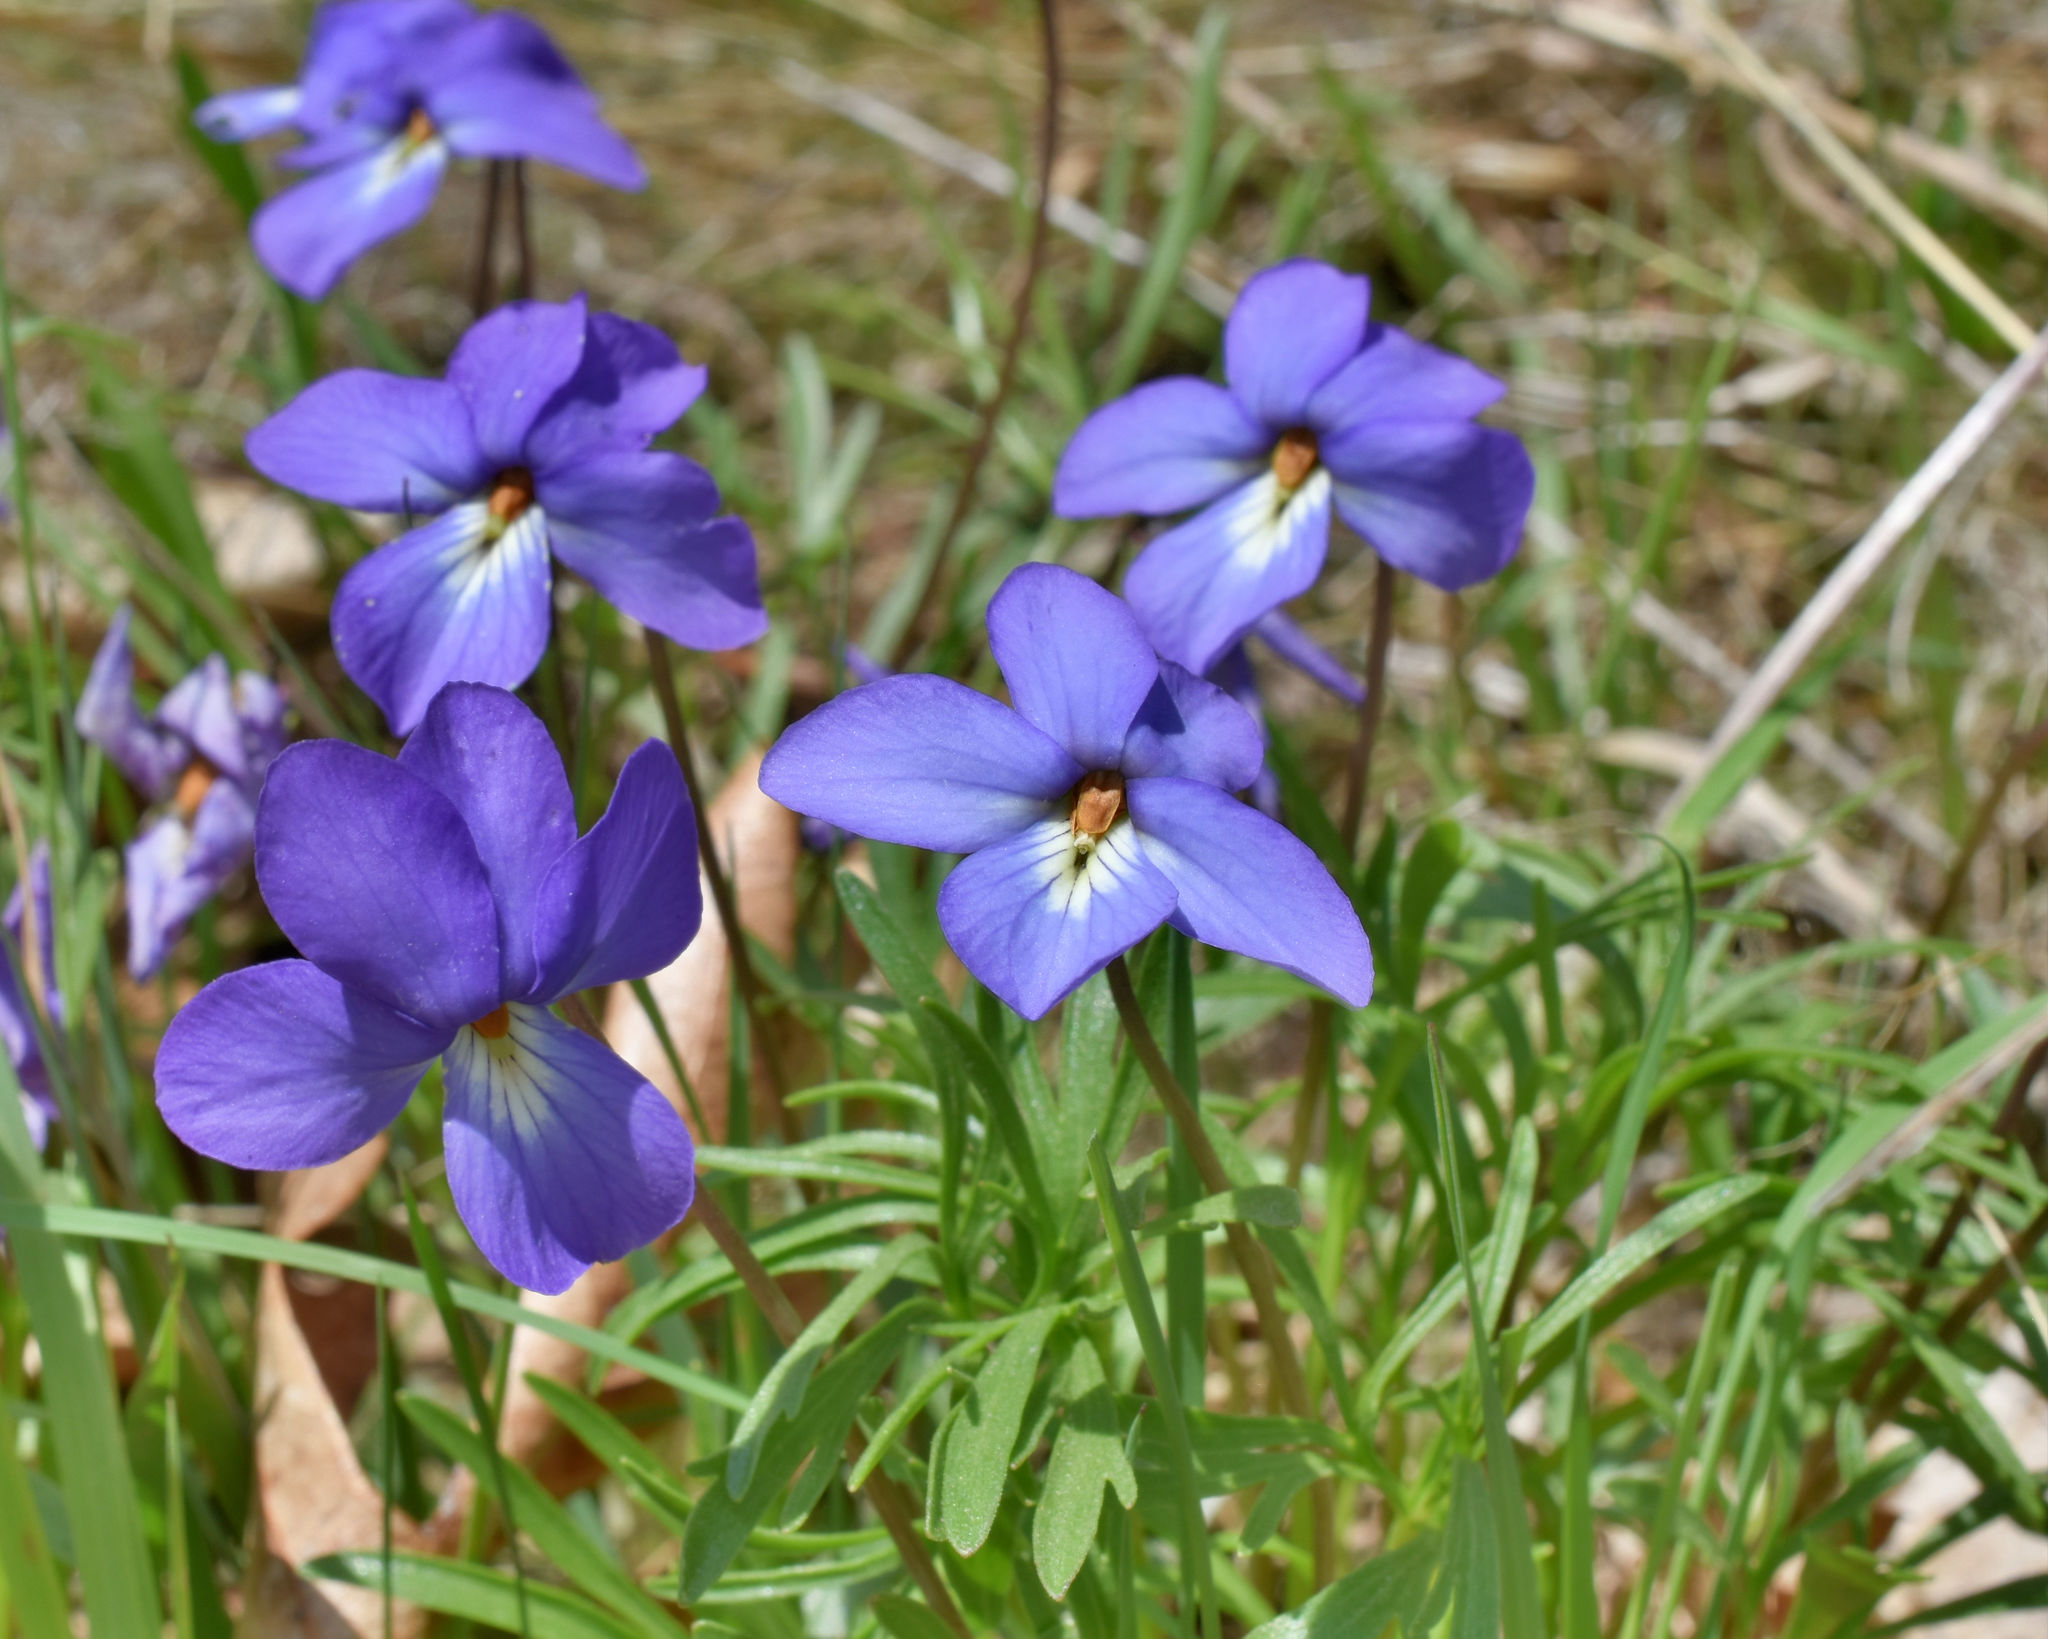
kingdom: Plantae
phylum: Tracheophyta
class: Magnoliopsida
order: Malpighiales
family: Violaceae
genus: Viola
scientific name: Viola pedata
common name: Pansy violet
